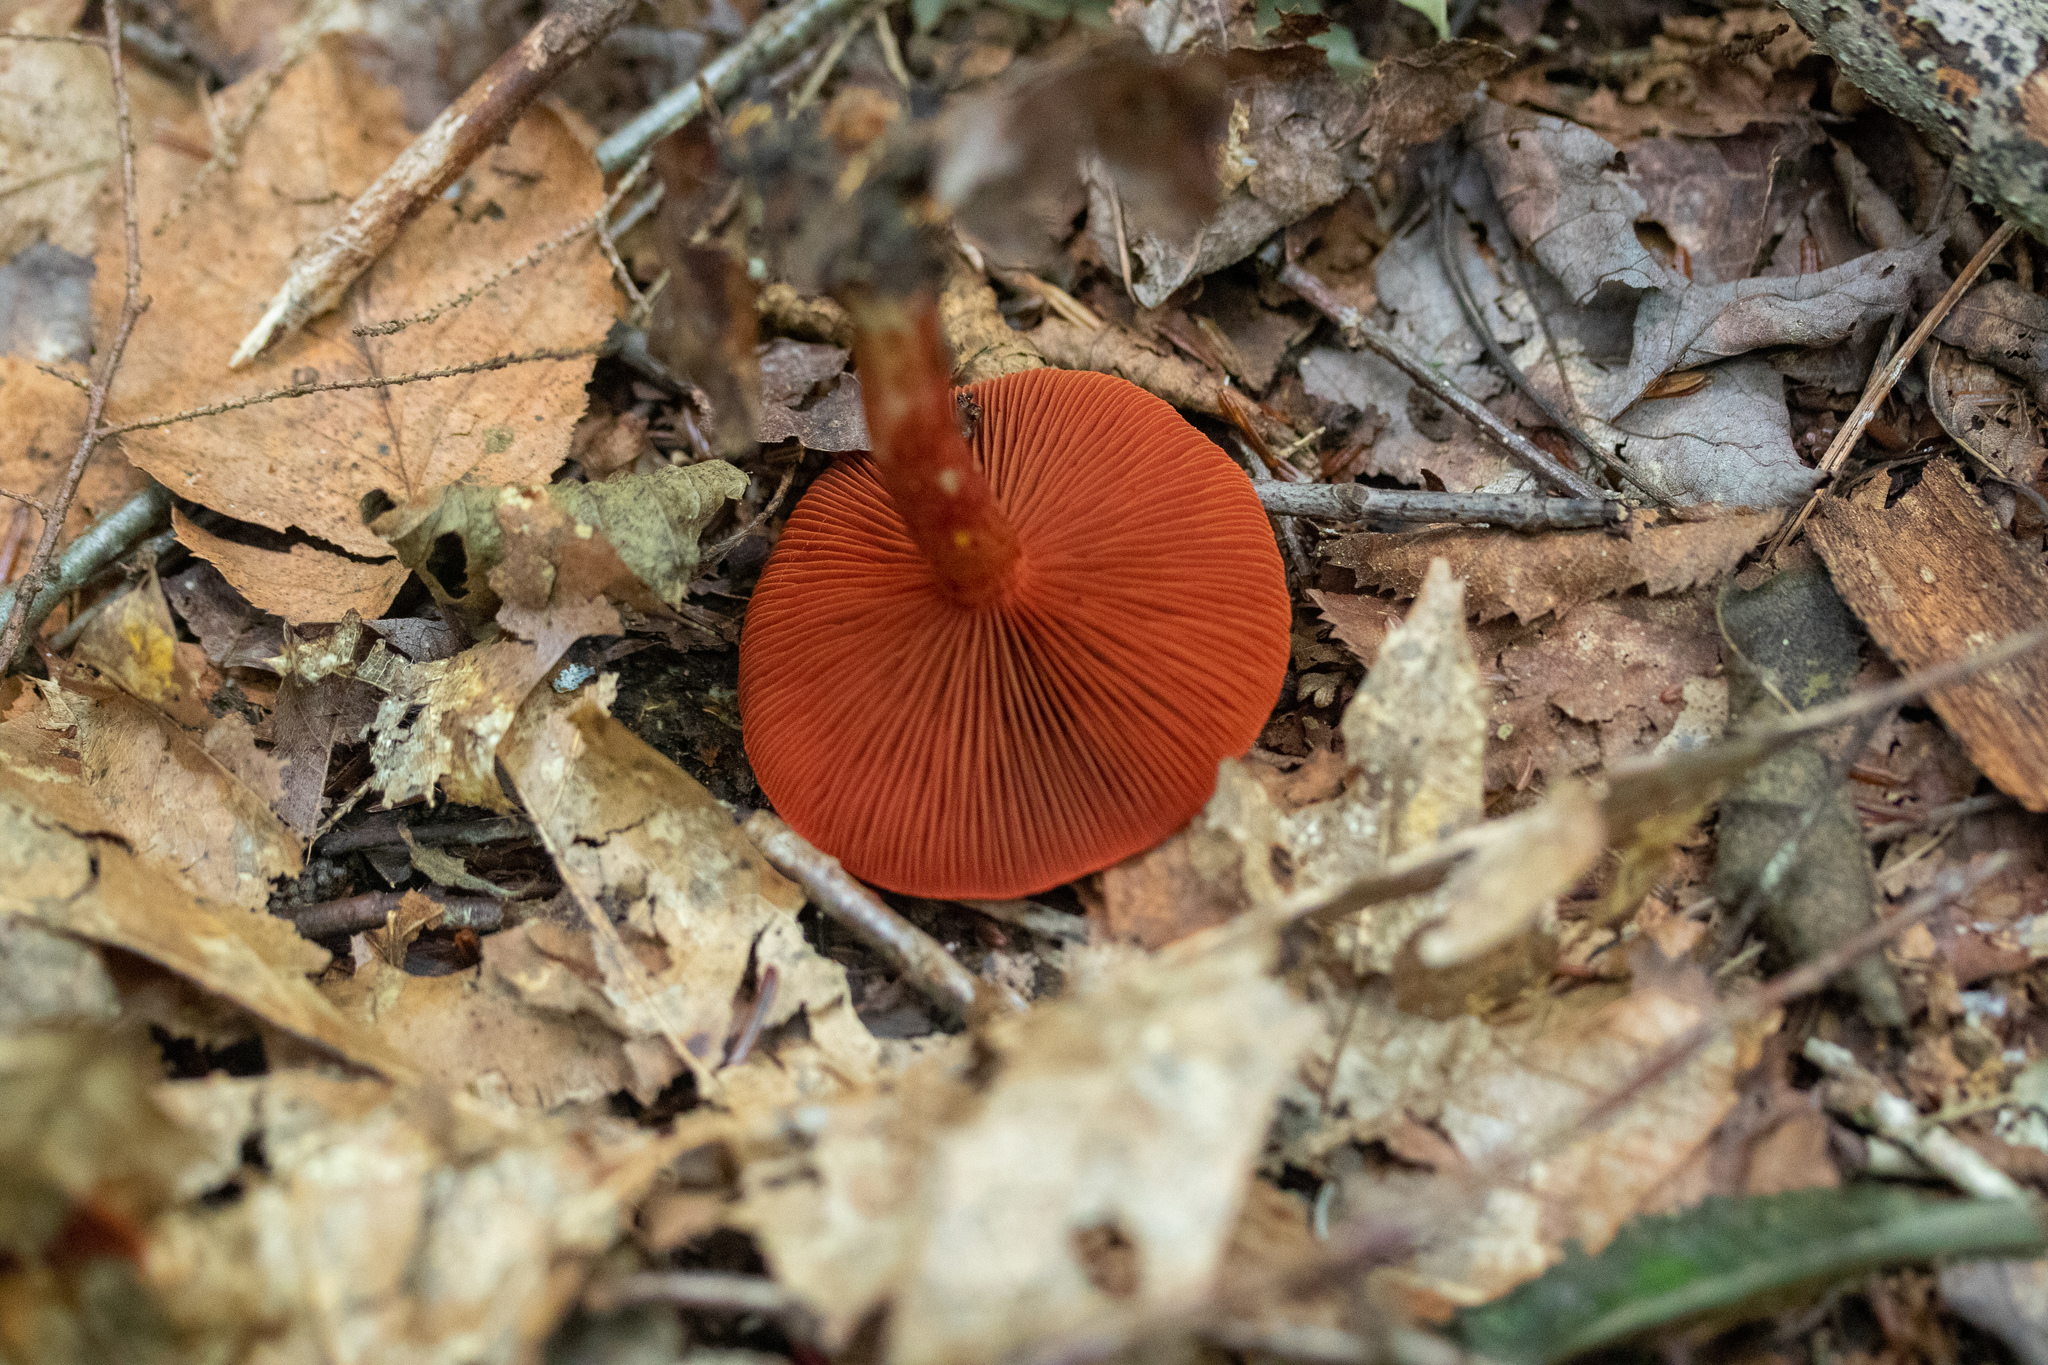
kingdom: Fungi
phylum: Basidiomycota
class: Agaricomycetes
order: Agaricales
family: Cortinariaceae
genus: Cortinarius
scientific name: Cortinarius harrisonii
